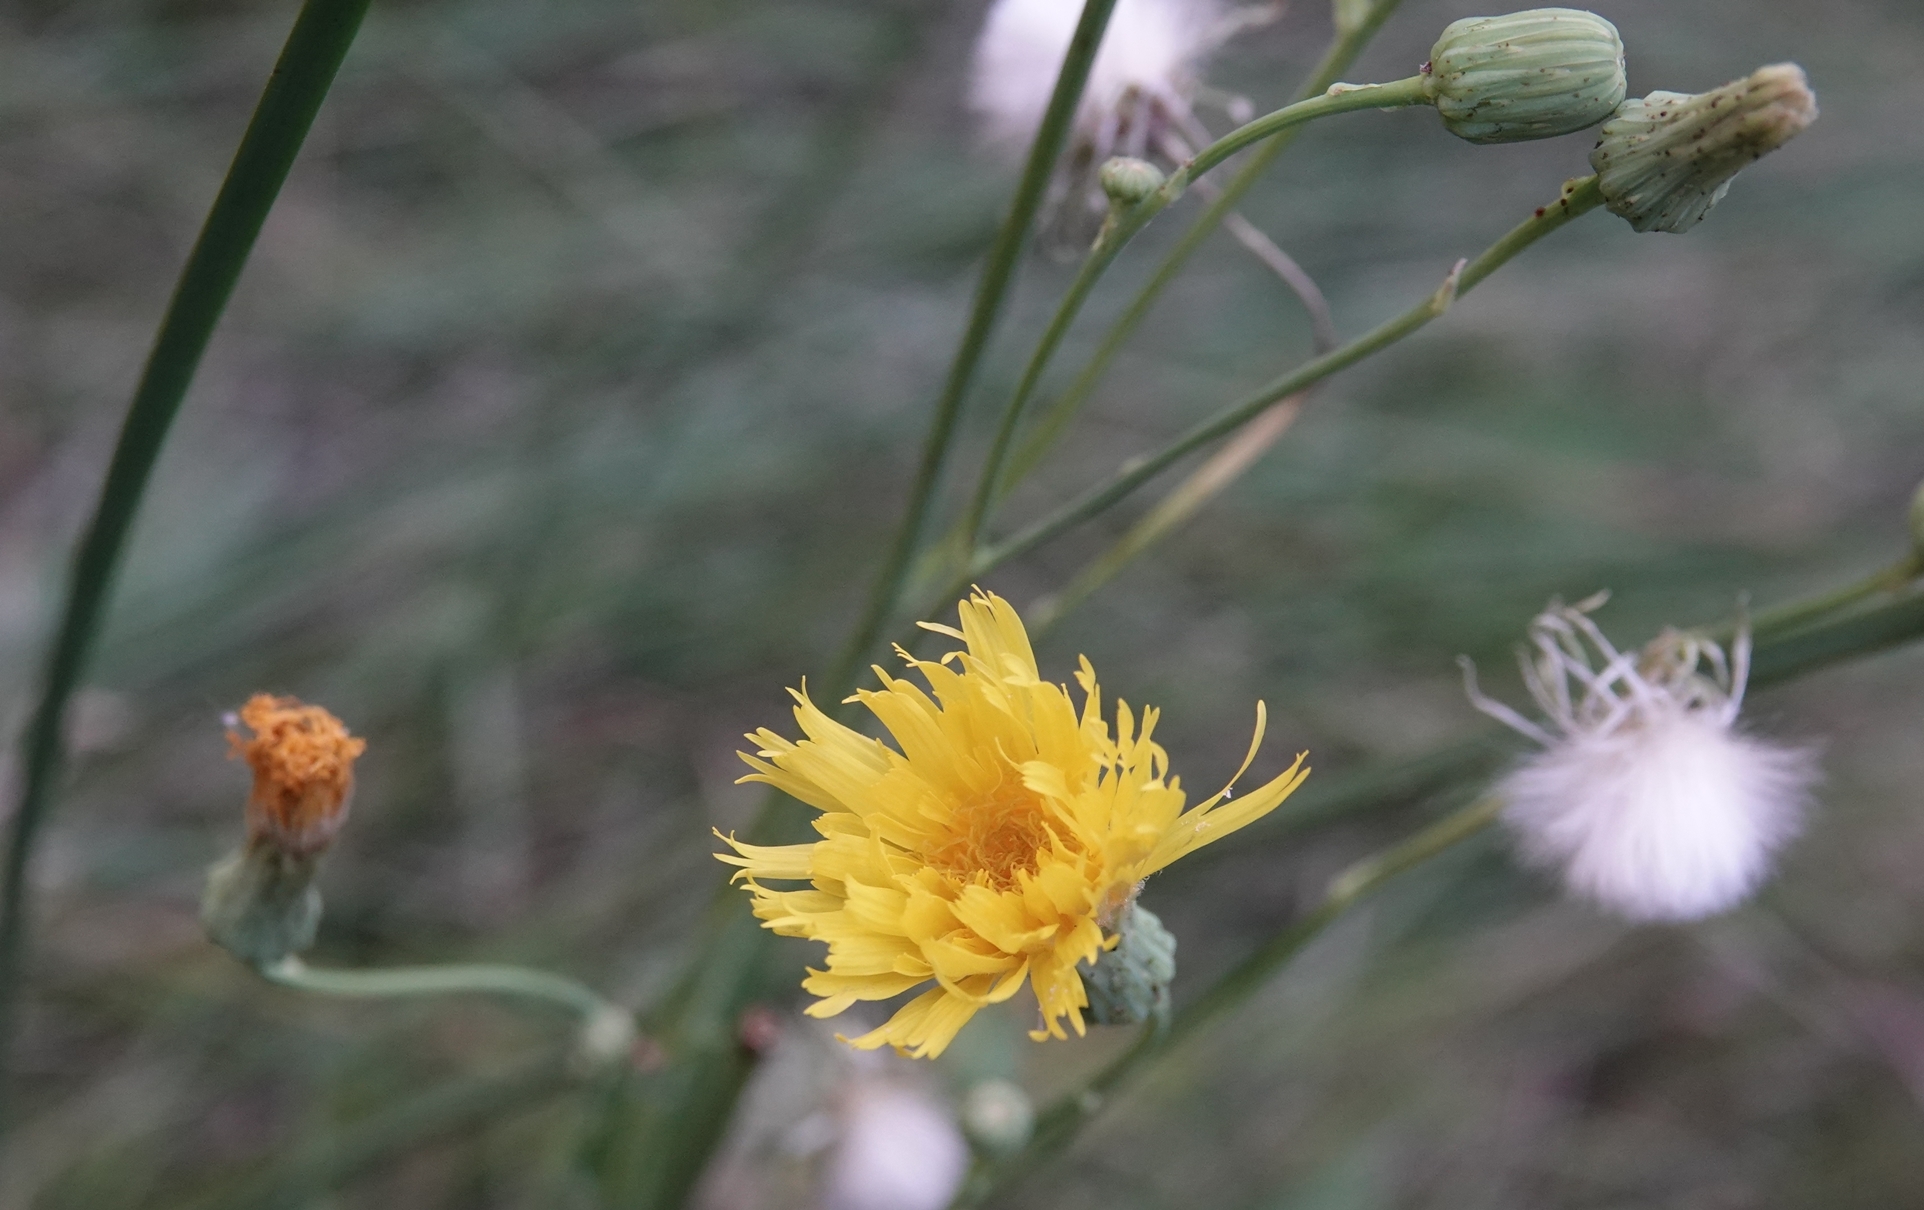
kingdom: Plantae
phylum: Tracheophyta
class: Magnoliopsida
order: Asterales
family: Asteraceae
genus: Sonchus
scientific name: Sonchus arvensis
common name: Perennial sow-thistle
